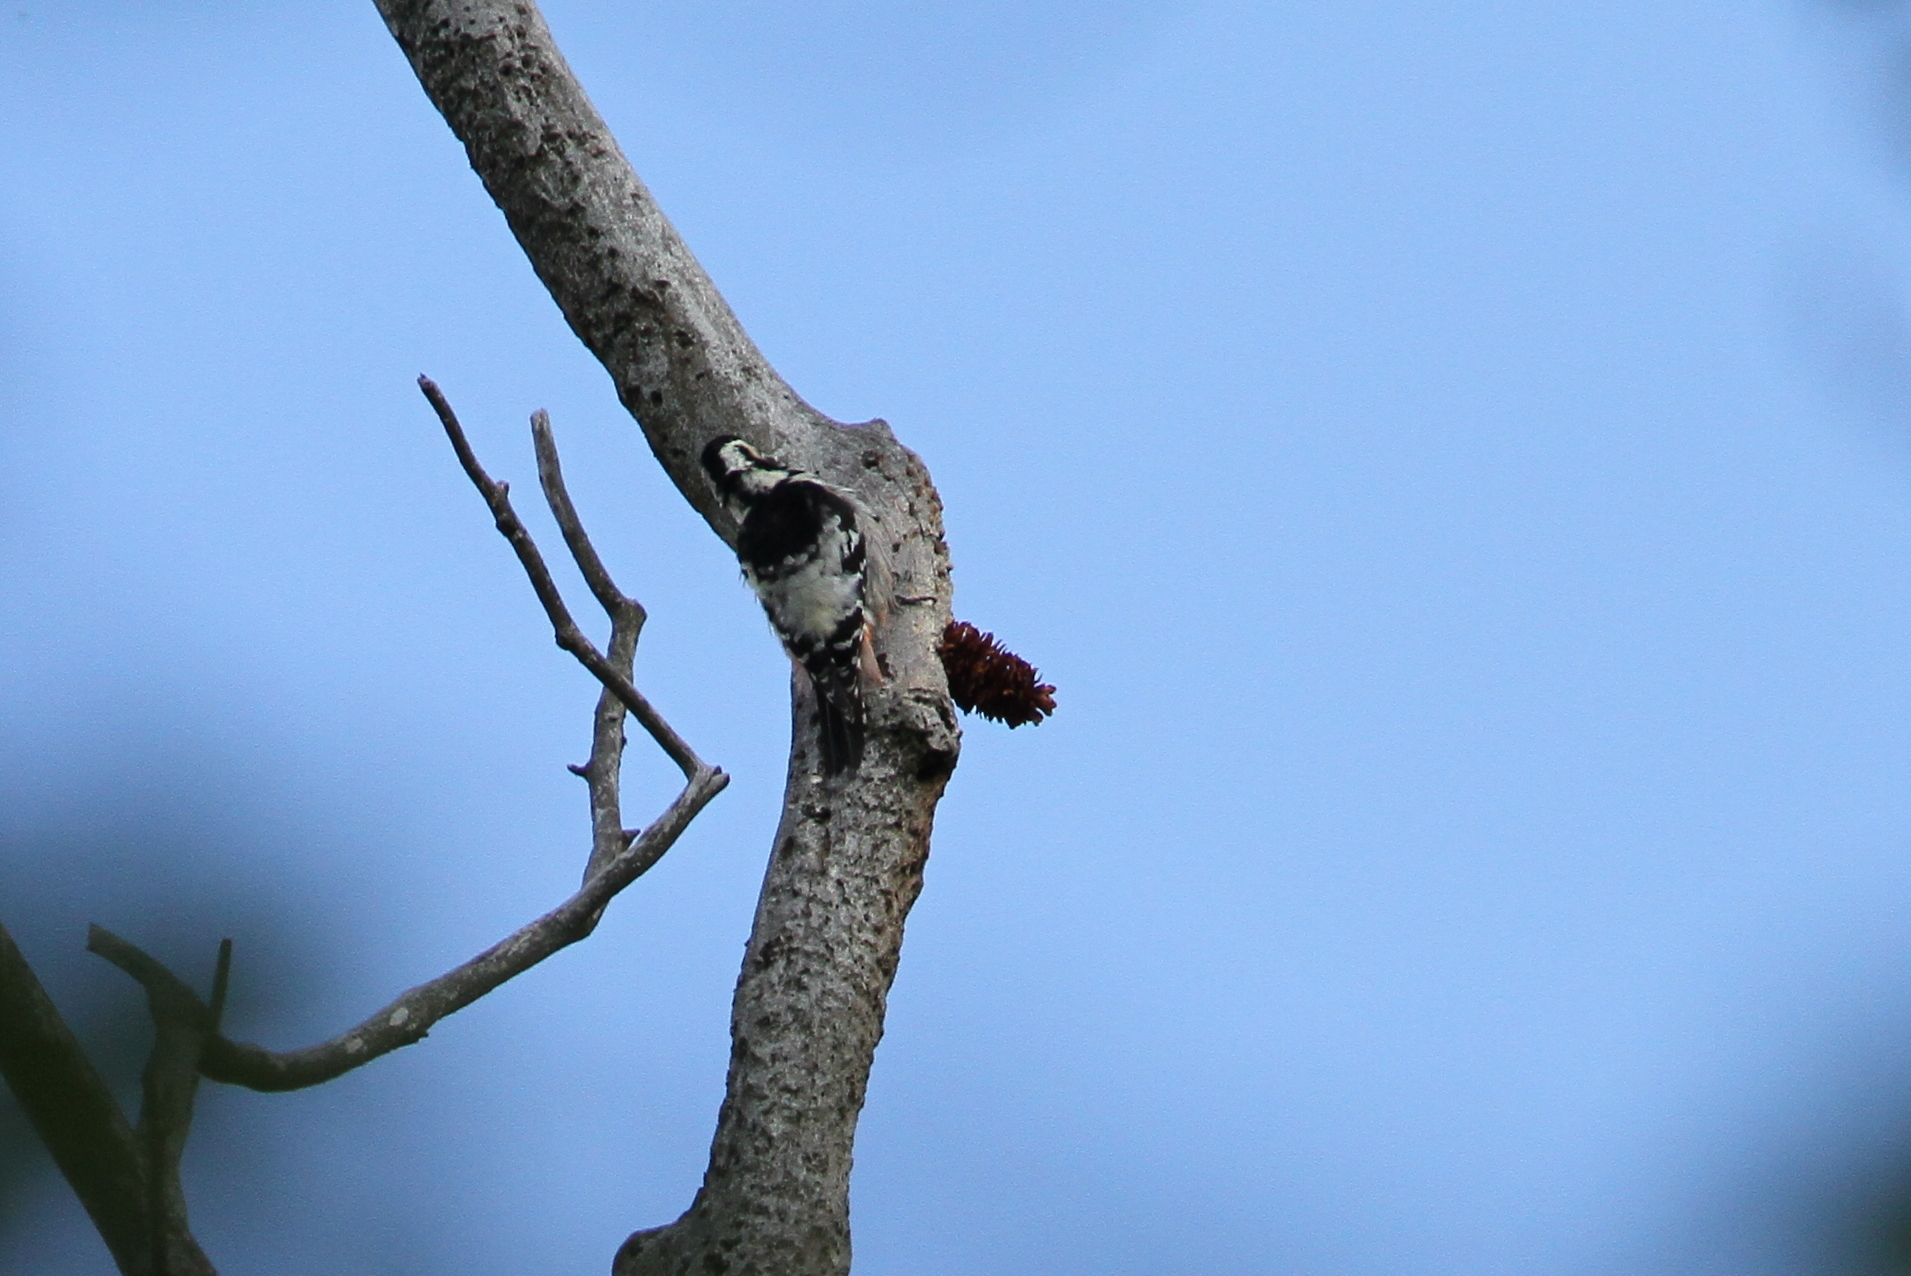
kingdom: Animalia
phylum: Chordata
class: Aves
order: Piciformes
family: Picidae
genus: Dendrocopos
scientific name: Dendrocopos leucotos
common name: White-backed woodpecker
